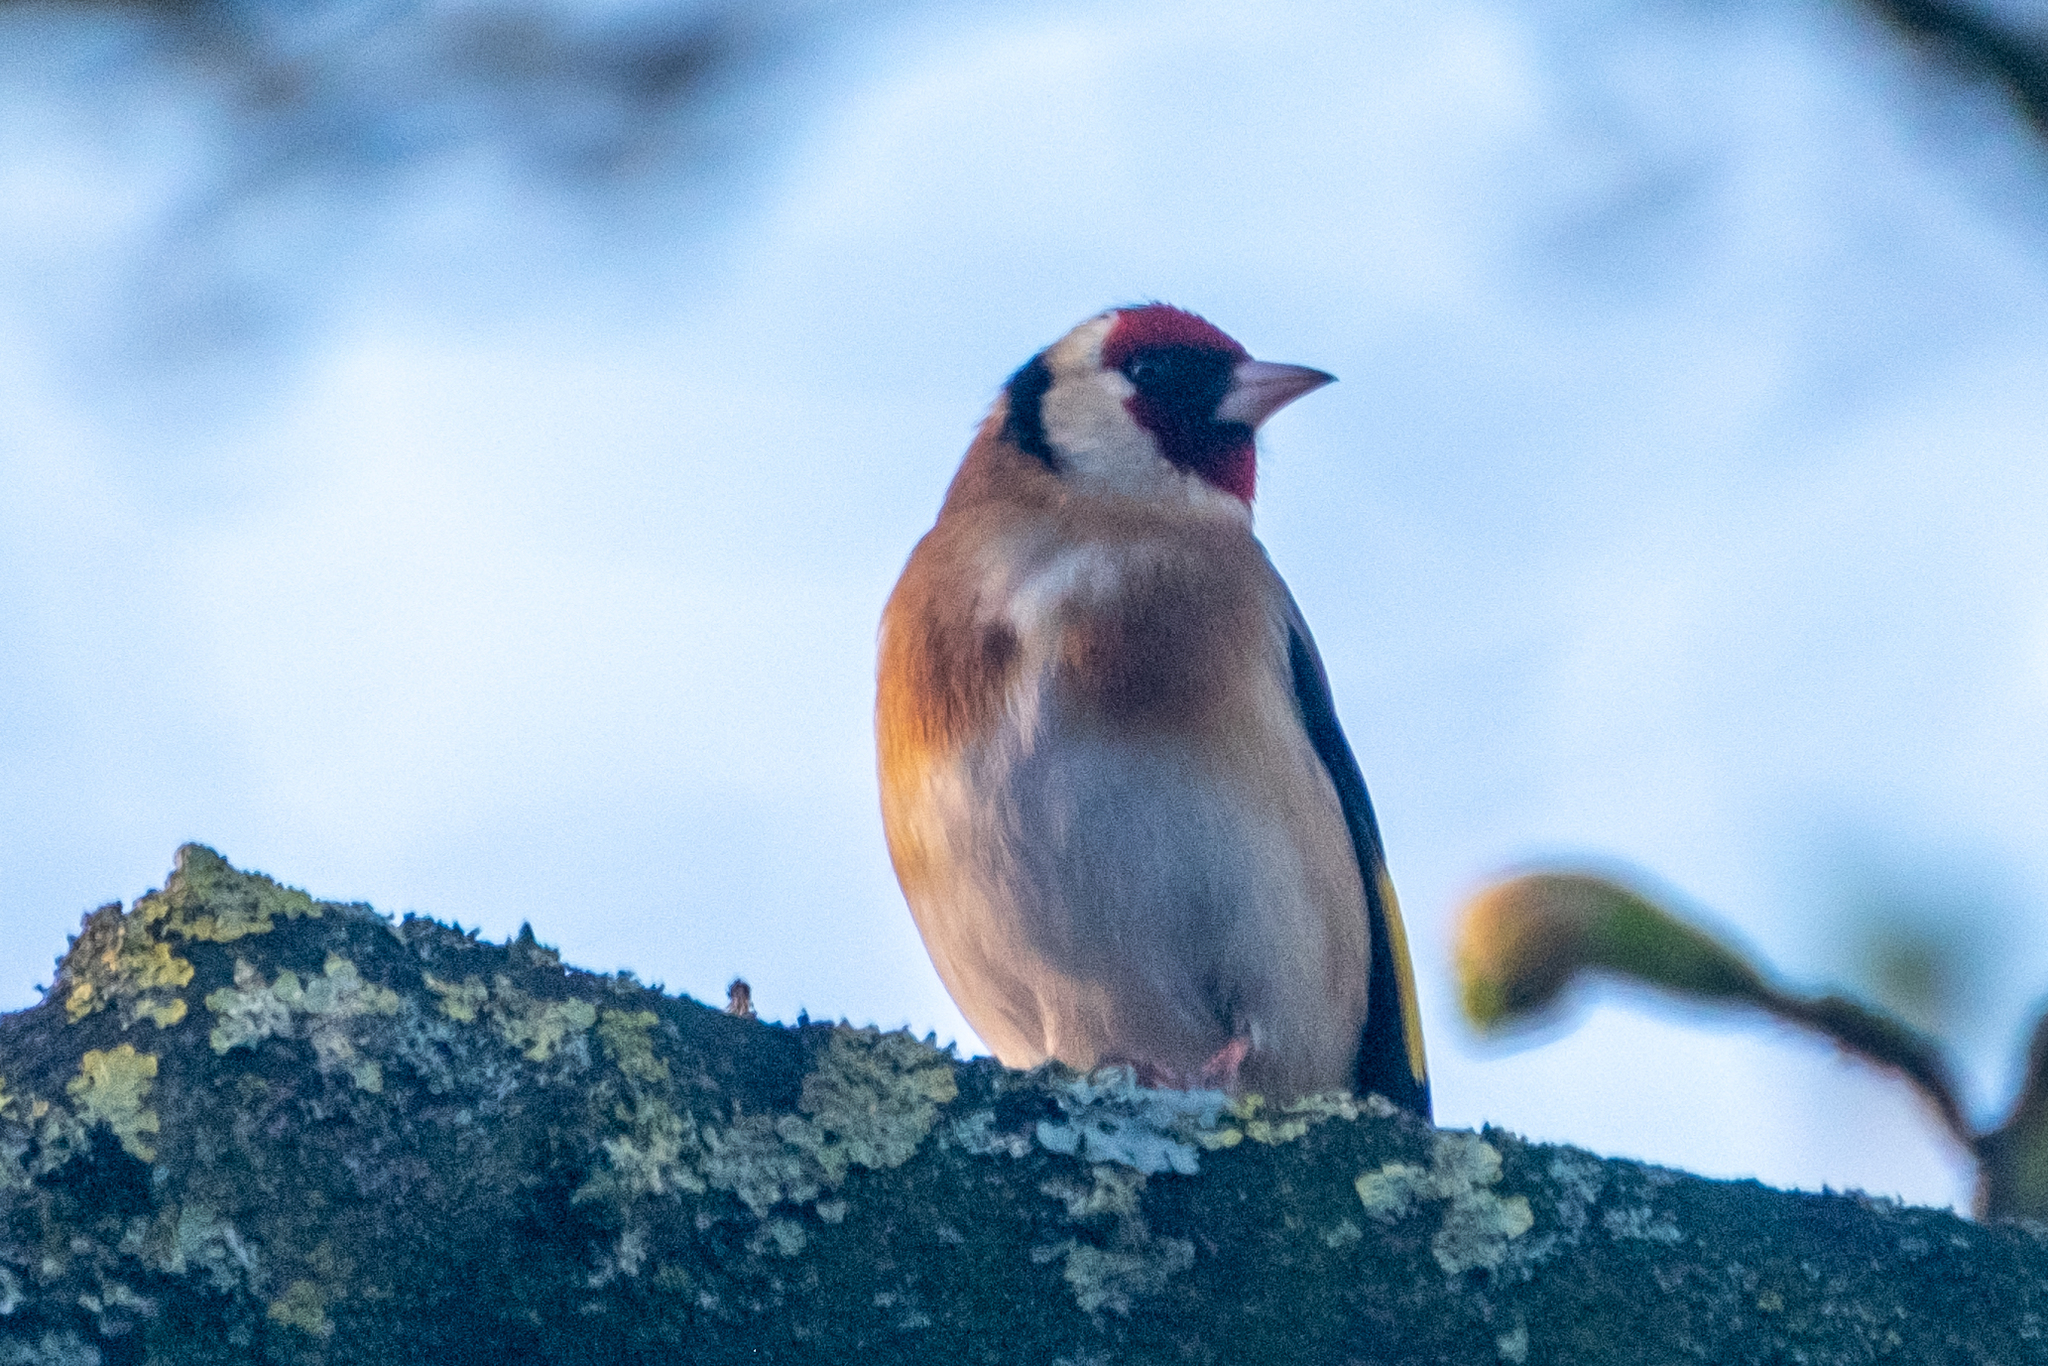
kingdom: Animalia
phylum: Chordata
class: Aves
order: Passeriformes
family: Fringillidae
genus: Carduelis
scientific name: Carduelis carduelis
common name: European goldfinch
